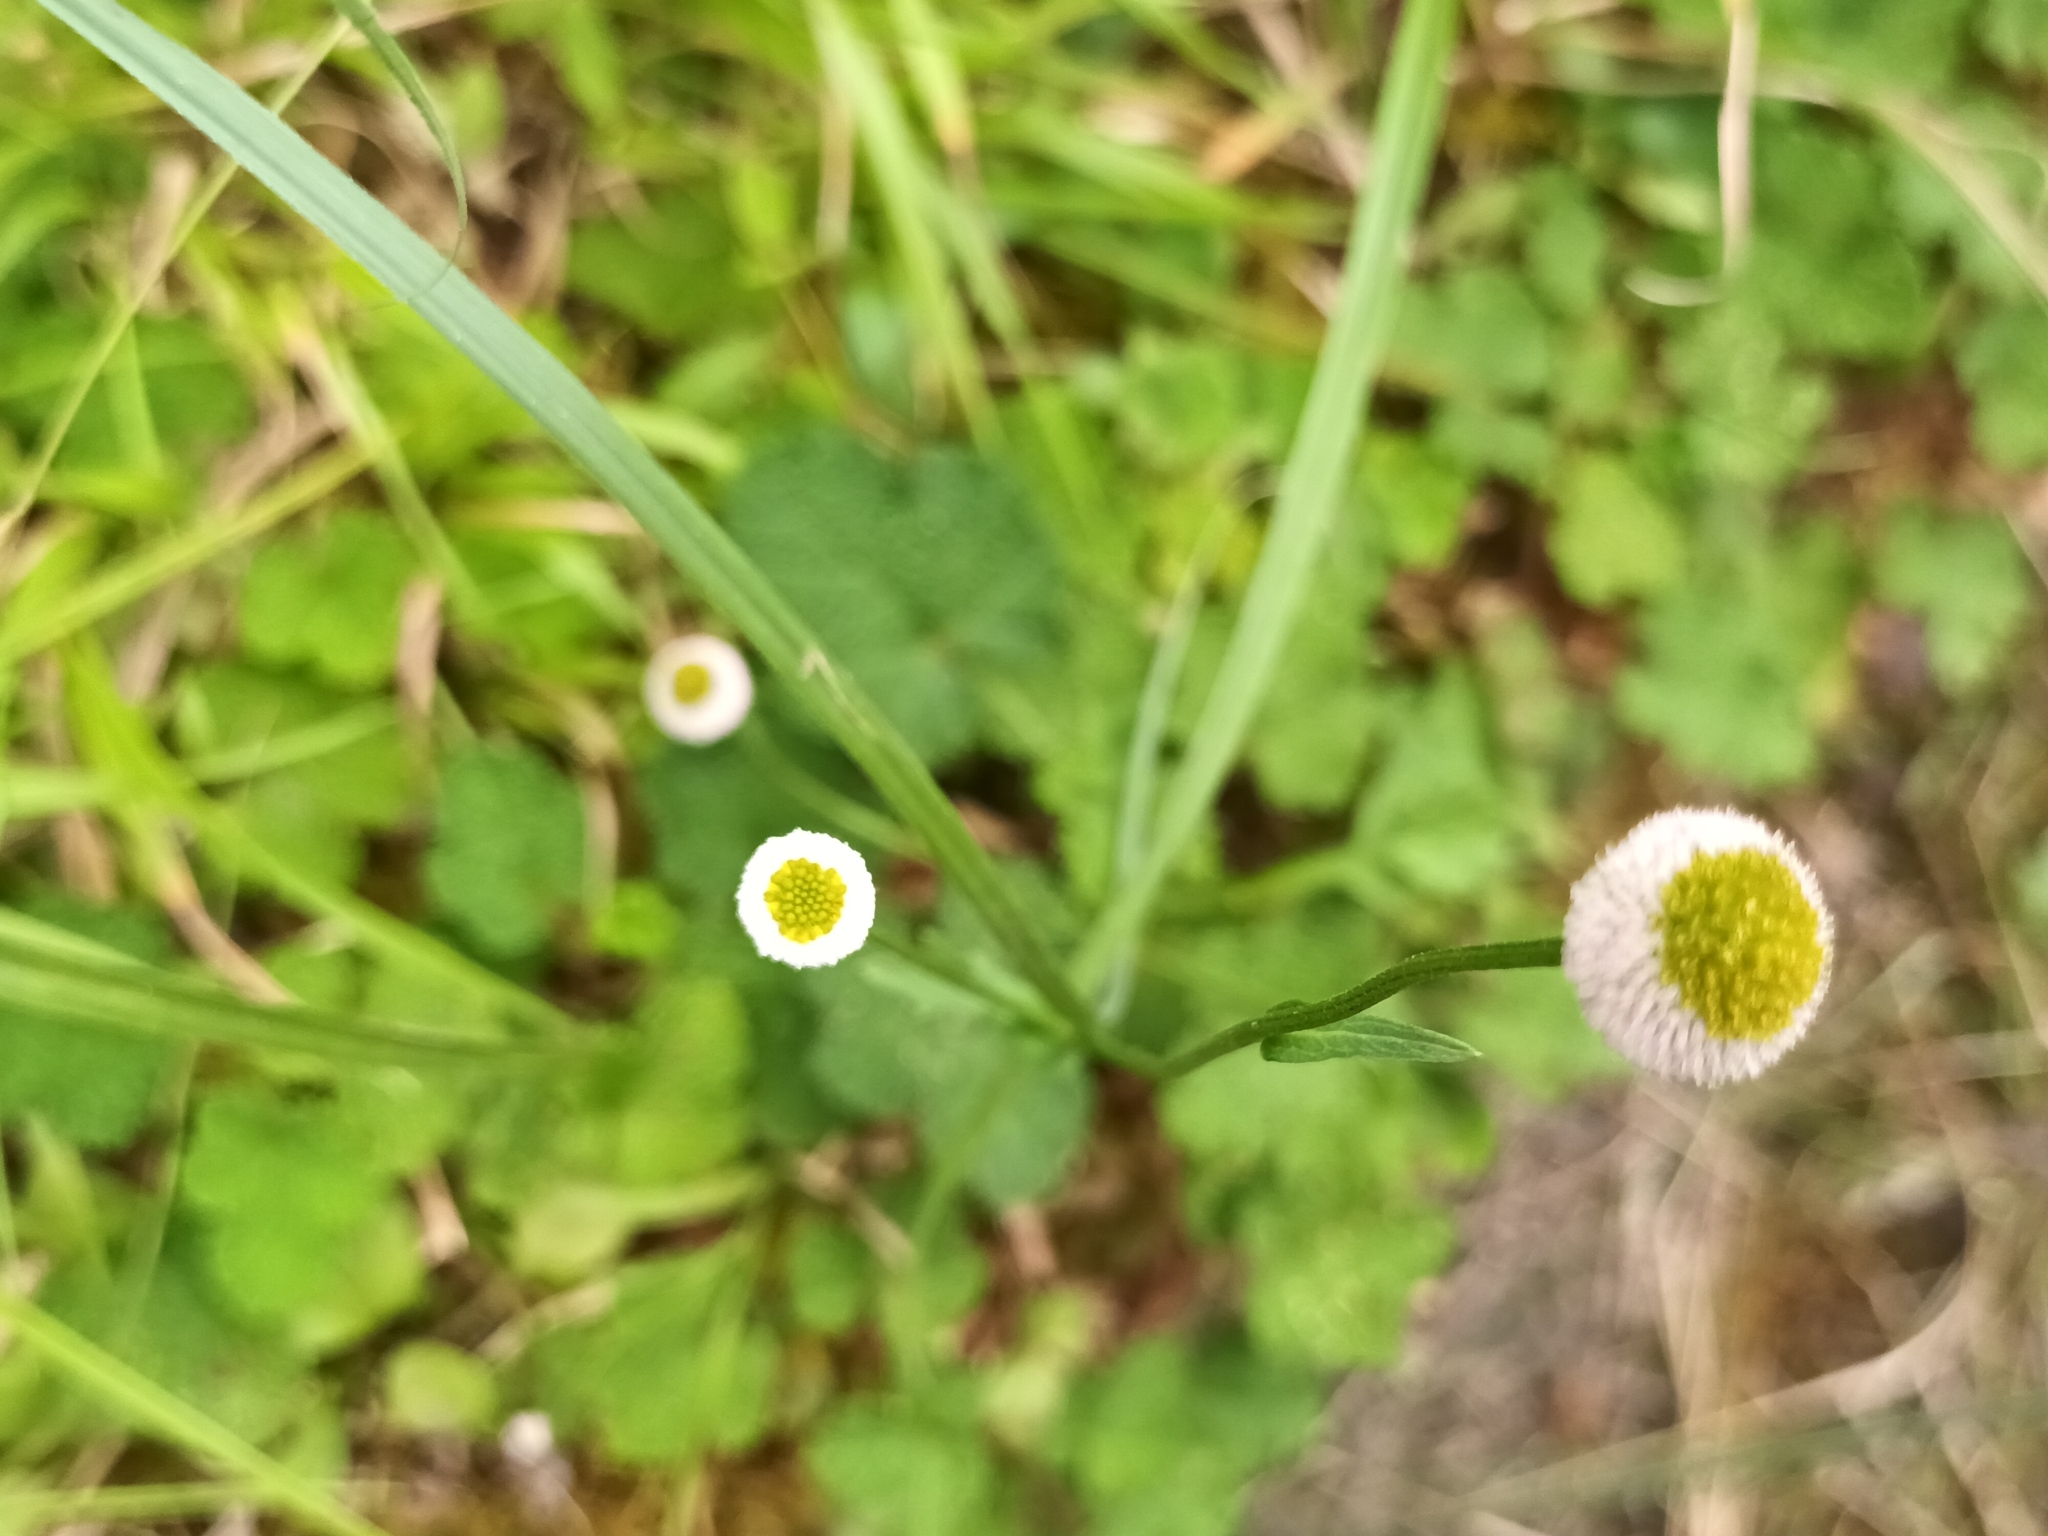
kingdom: Plantae
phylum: Tracheophyta
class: Magnoliopsida
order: Asterales
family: Asteraceae
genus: Myriactis
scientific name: Myriactis humilis
